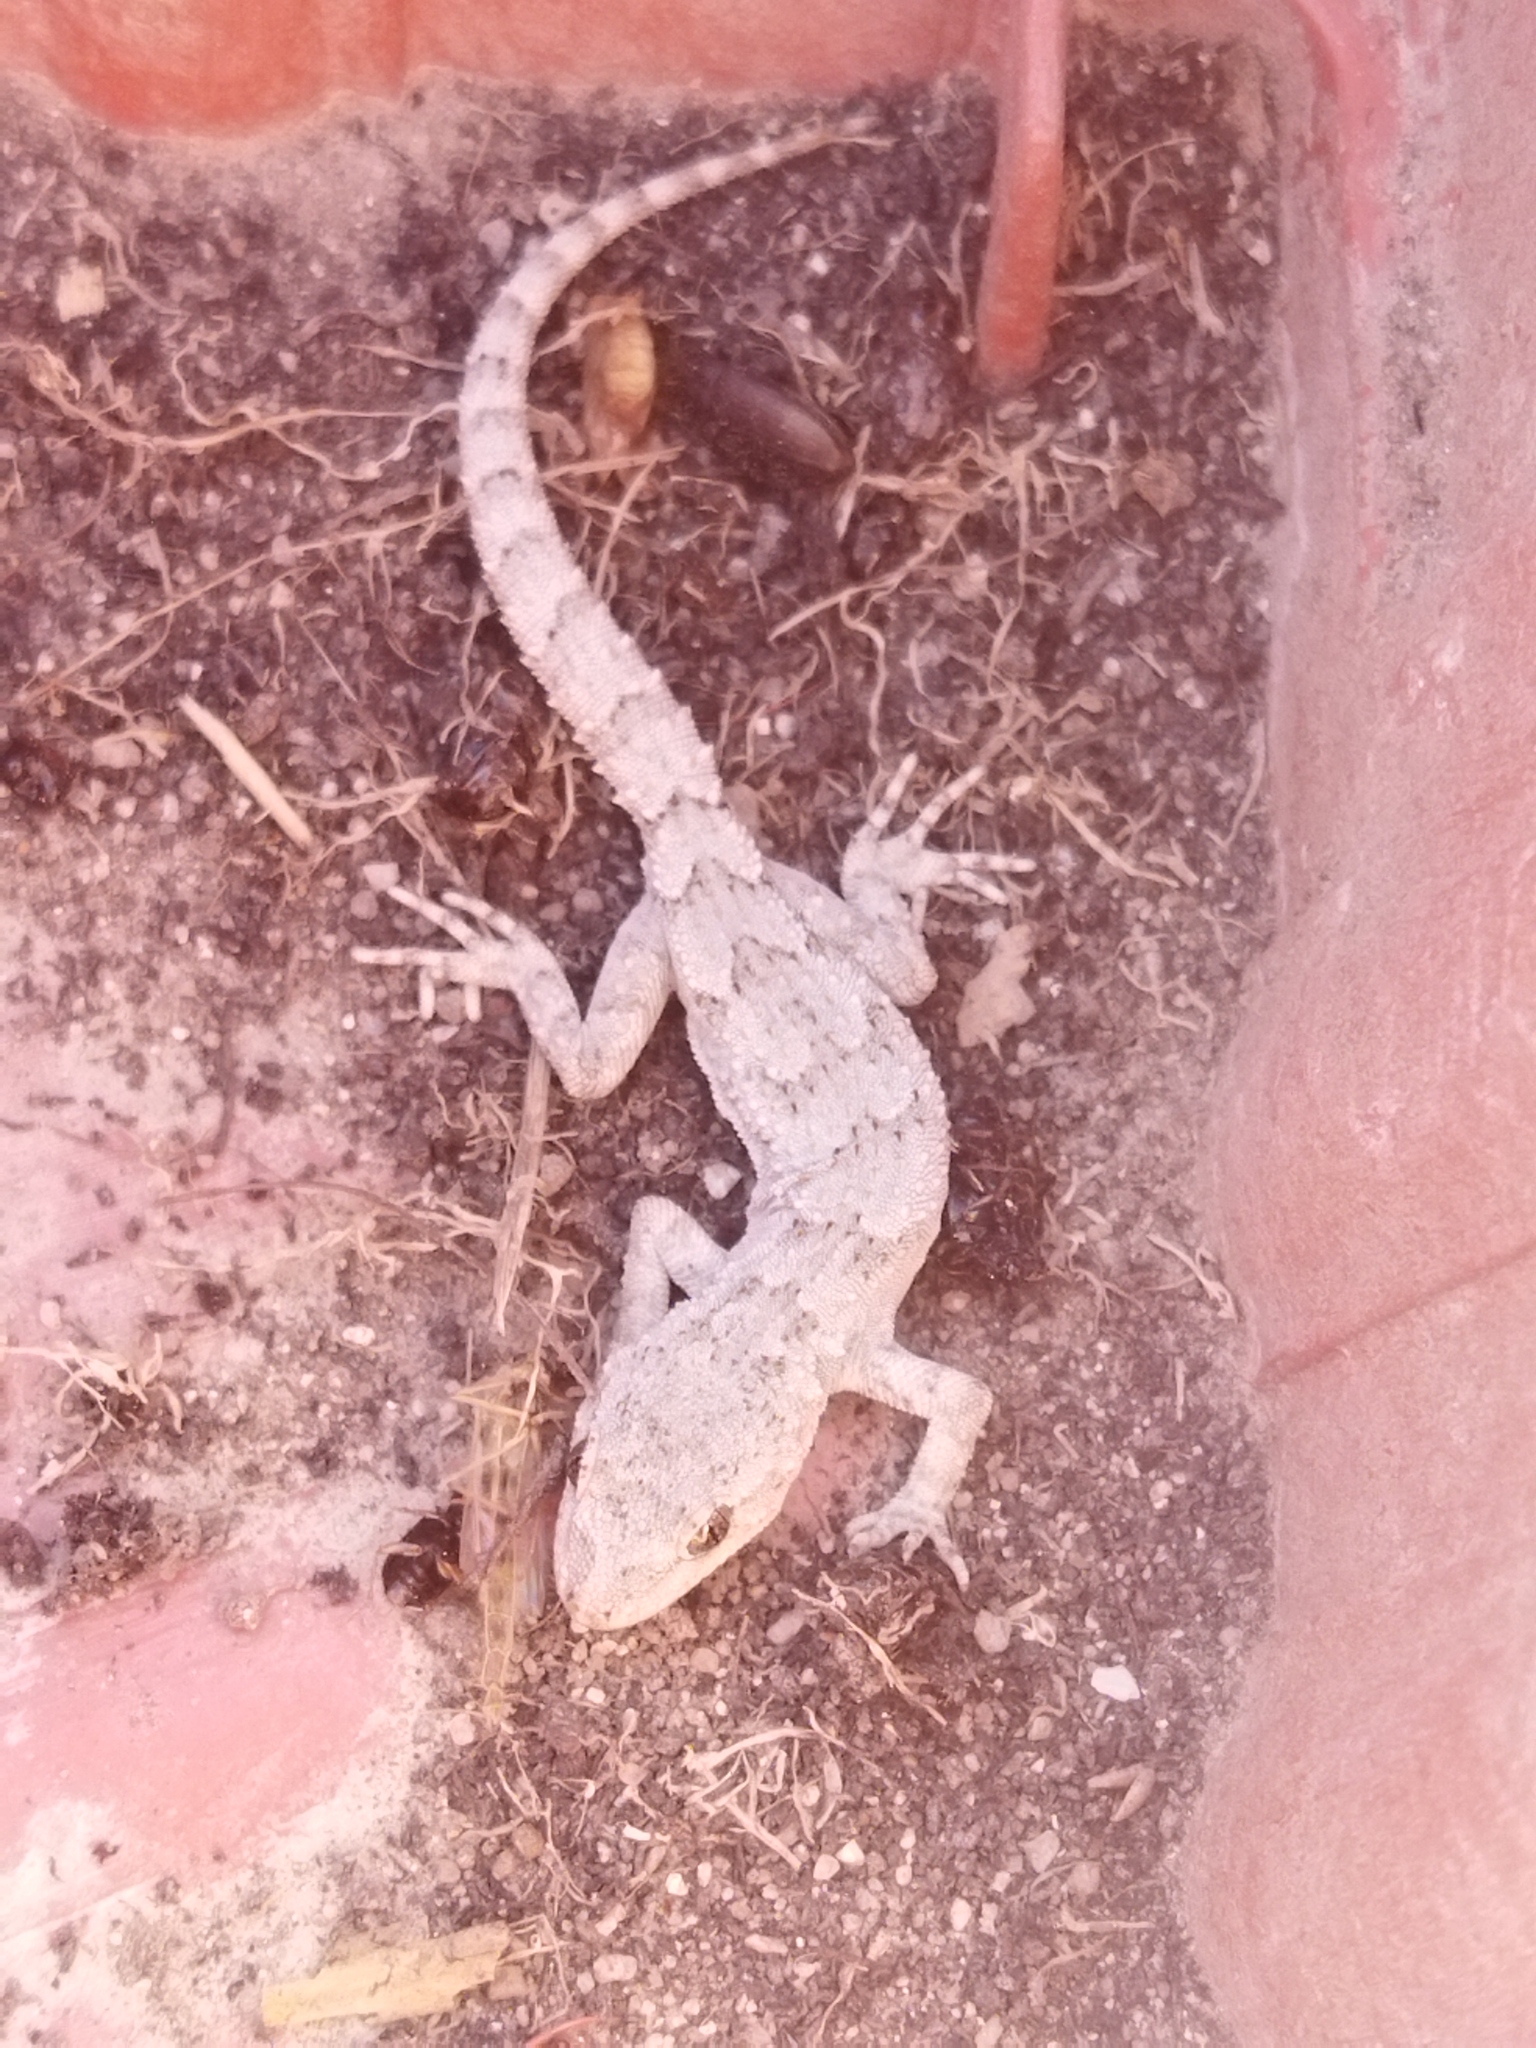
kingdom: Animalia
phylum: Chordata
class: Squamata
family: Gekkonidae
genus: Mediodactylus
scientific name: Mediodactylus kotschyi
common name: Kotschy's gecko
